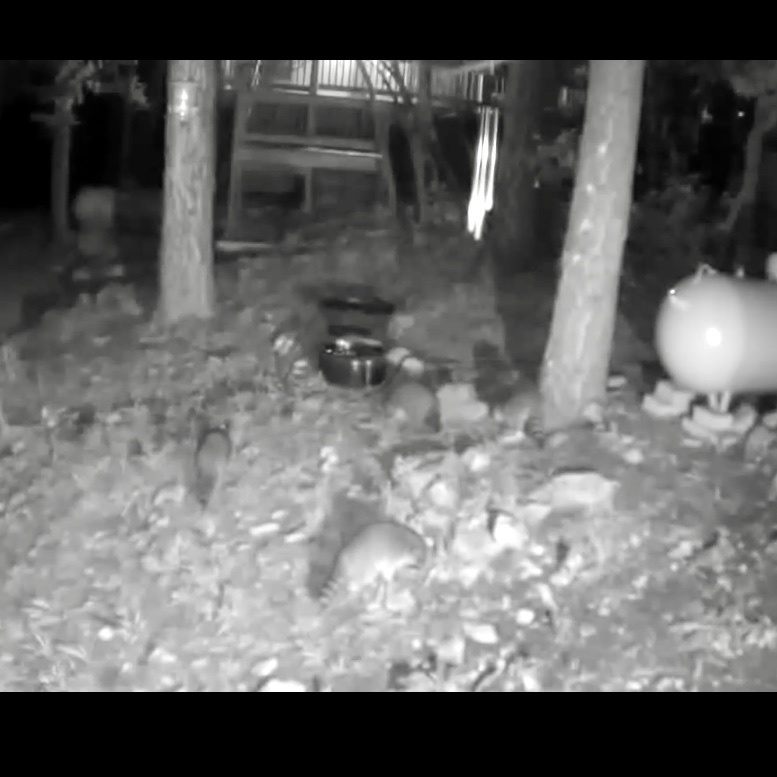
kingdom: Animalia
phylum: Chordata
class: Mammalia
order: Carnivora
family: Procyonidae
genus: Procyon
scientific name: Procyon lotor
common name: Raccoon
